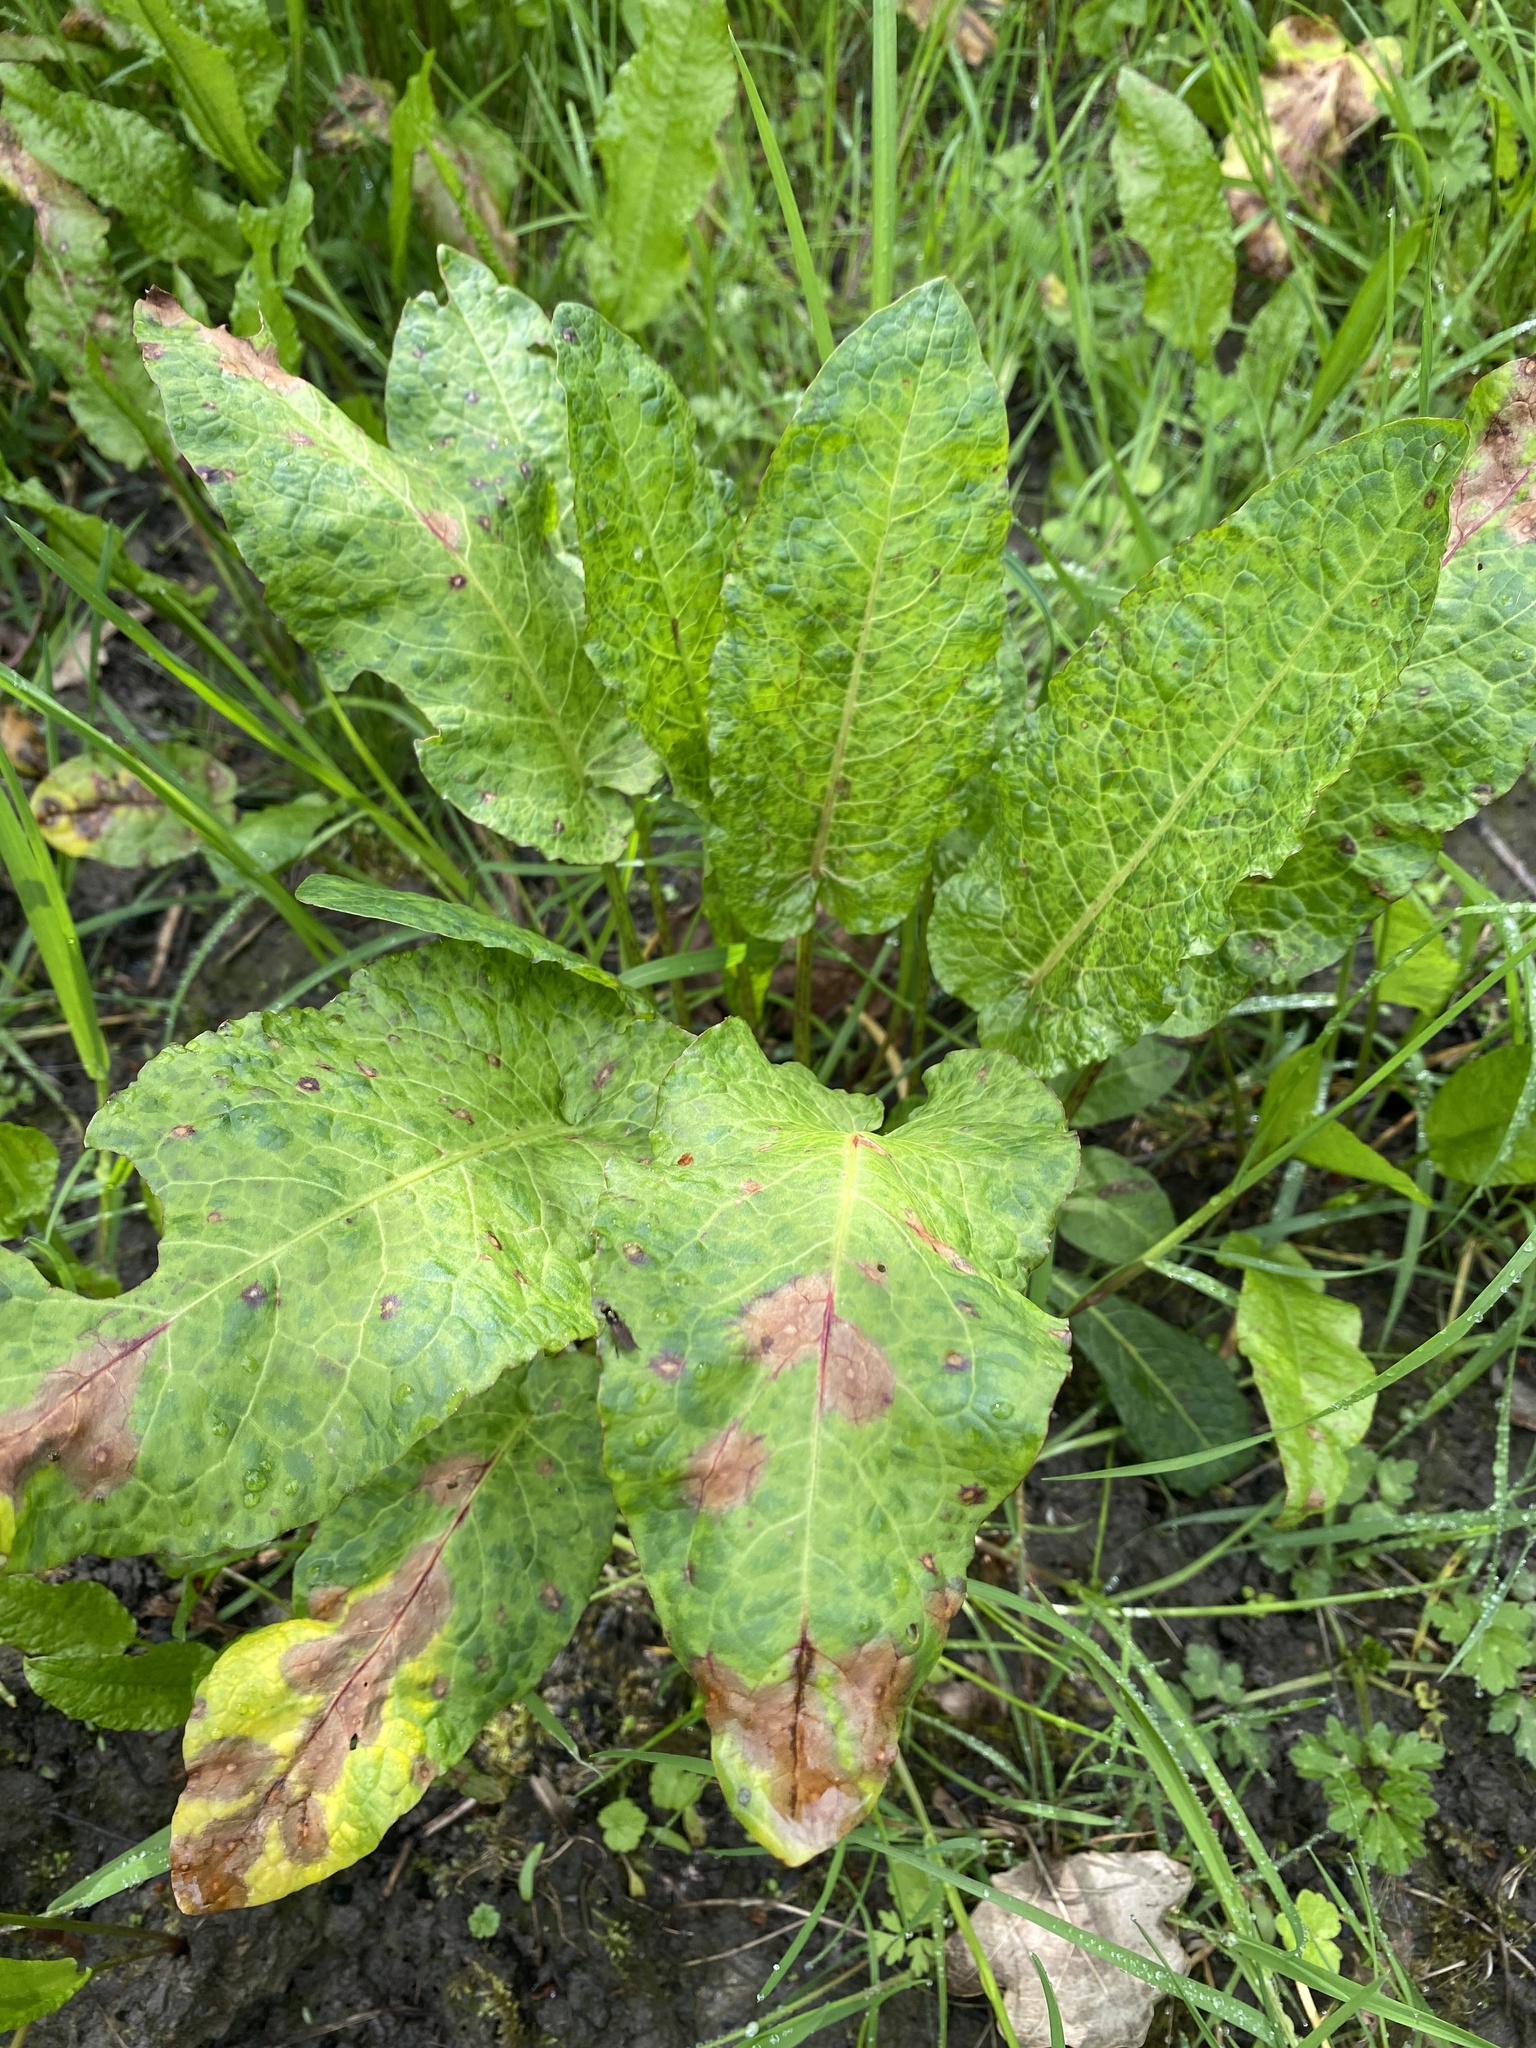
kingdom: Plantae
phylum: Tracheophyta
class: Magnoliopsida
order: Caryophyllales
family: Polygonaceae
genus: Rumex
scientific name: Rumex obtusifolius
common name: Bitter dock
